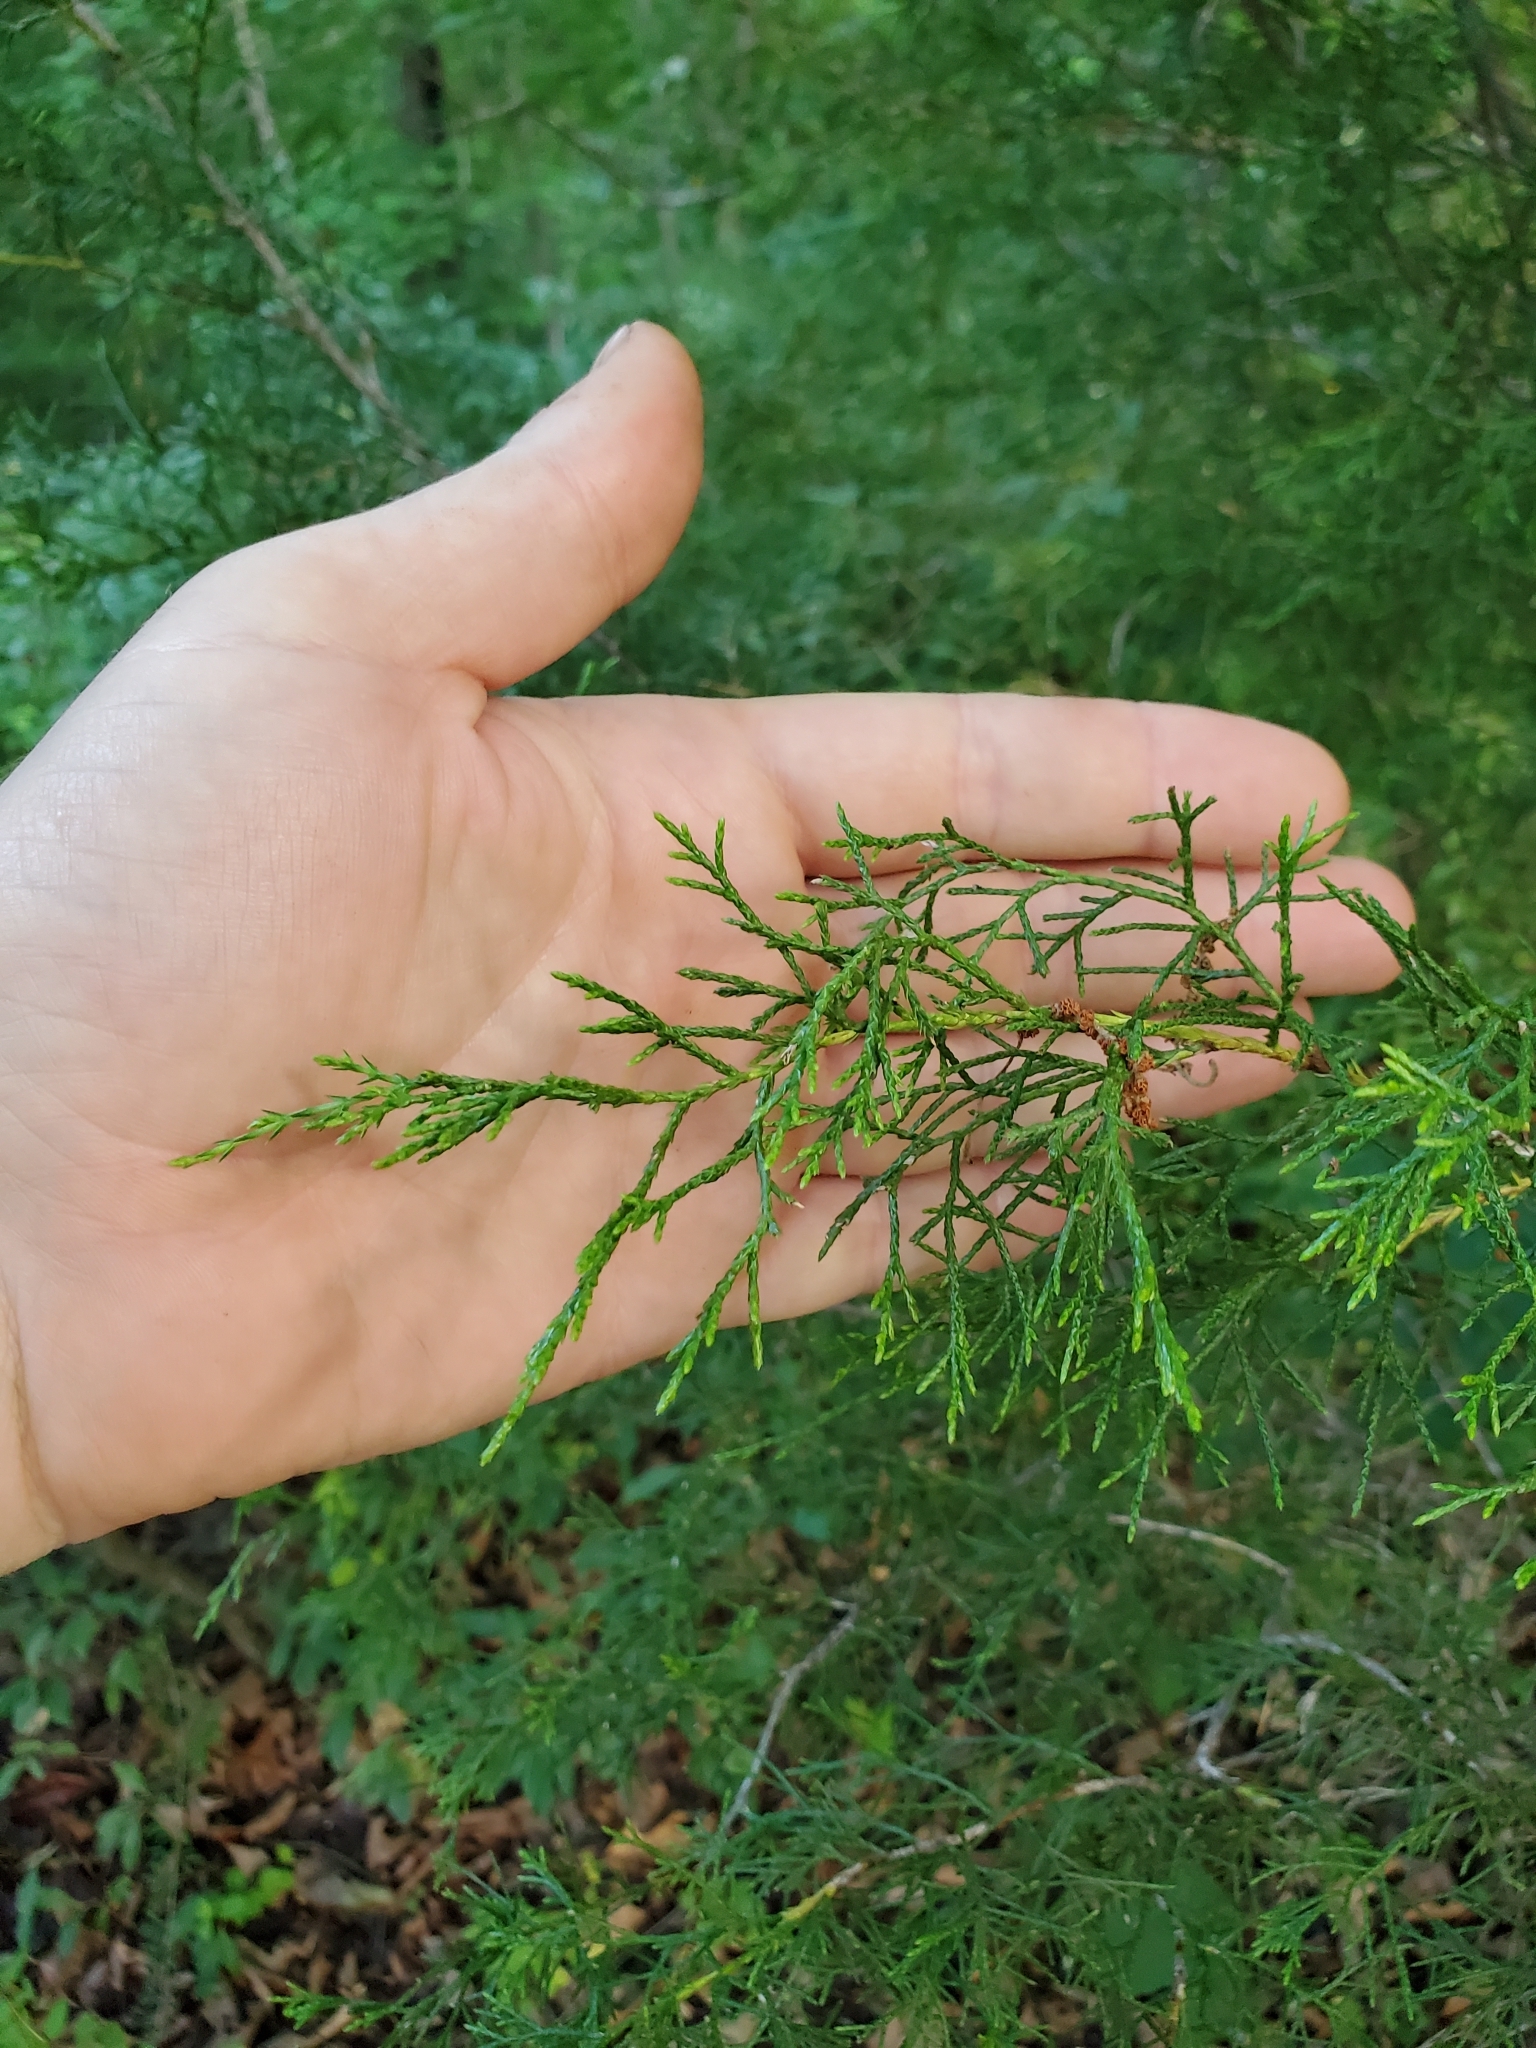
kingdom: Plantae
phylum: Tracheophyta
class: Pinopsida
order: Pinales
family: Cupressaceae
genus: Juniperus
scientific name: Juniperus virginiana
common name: Red juniper
